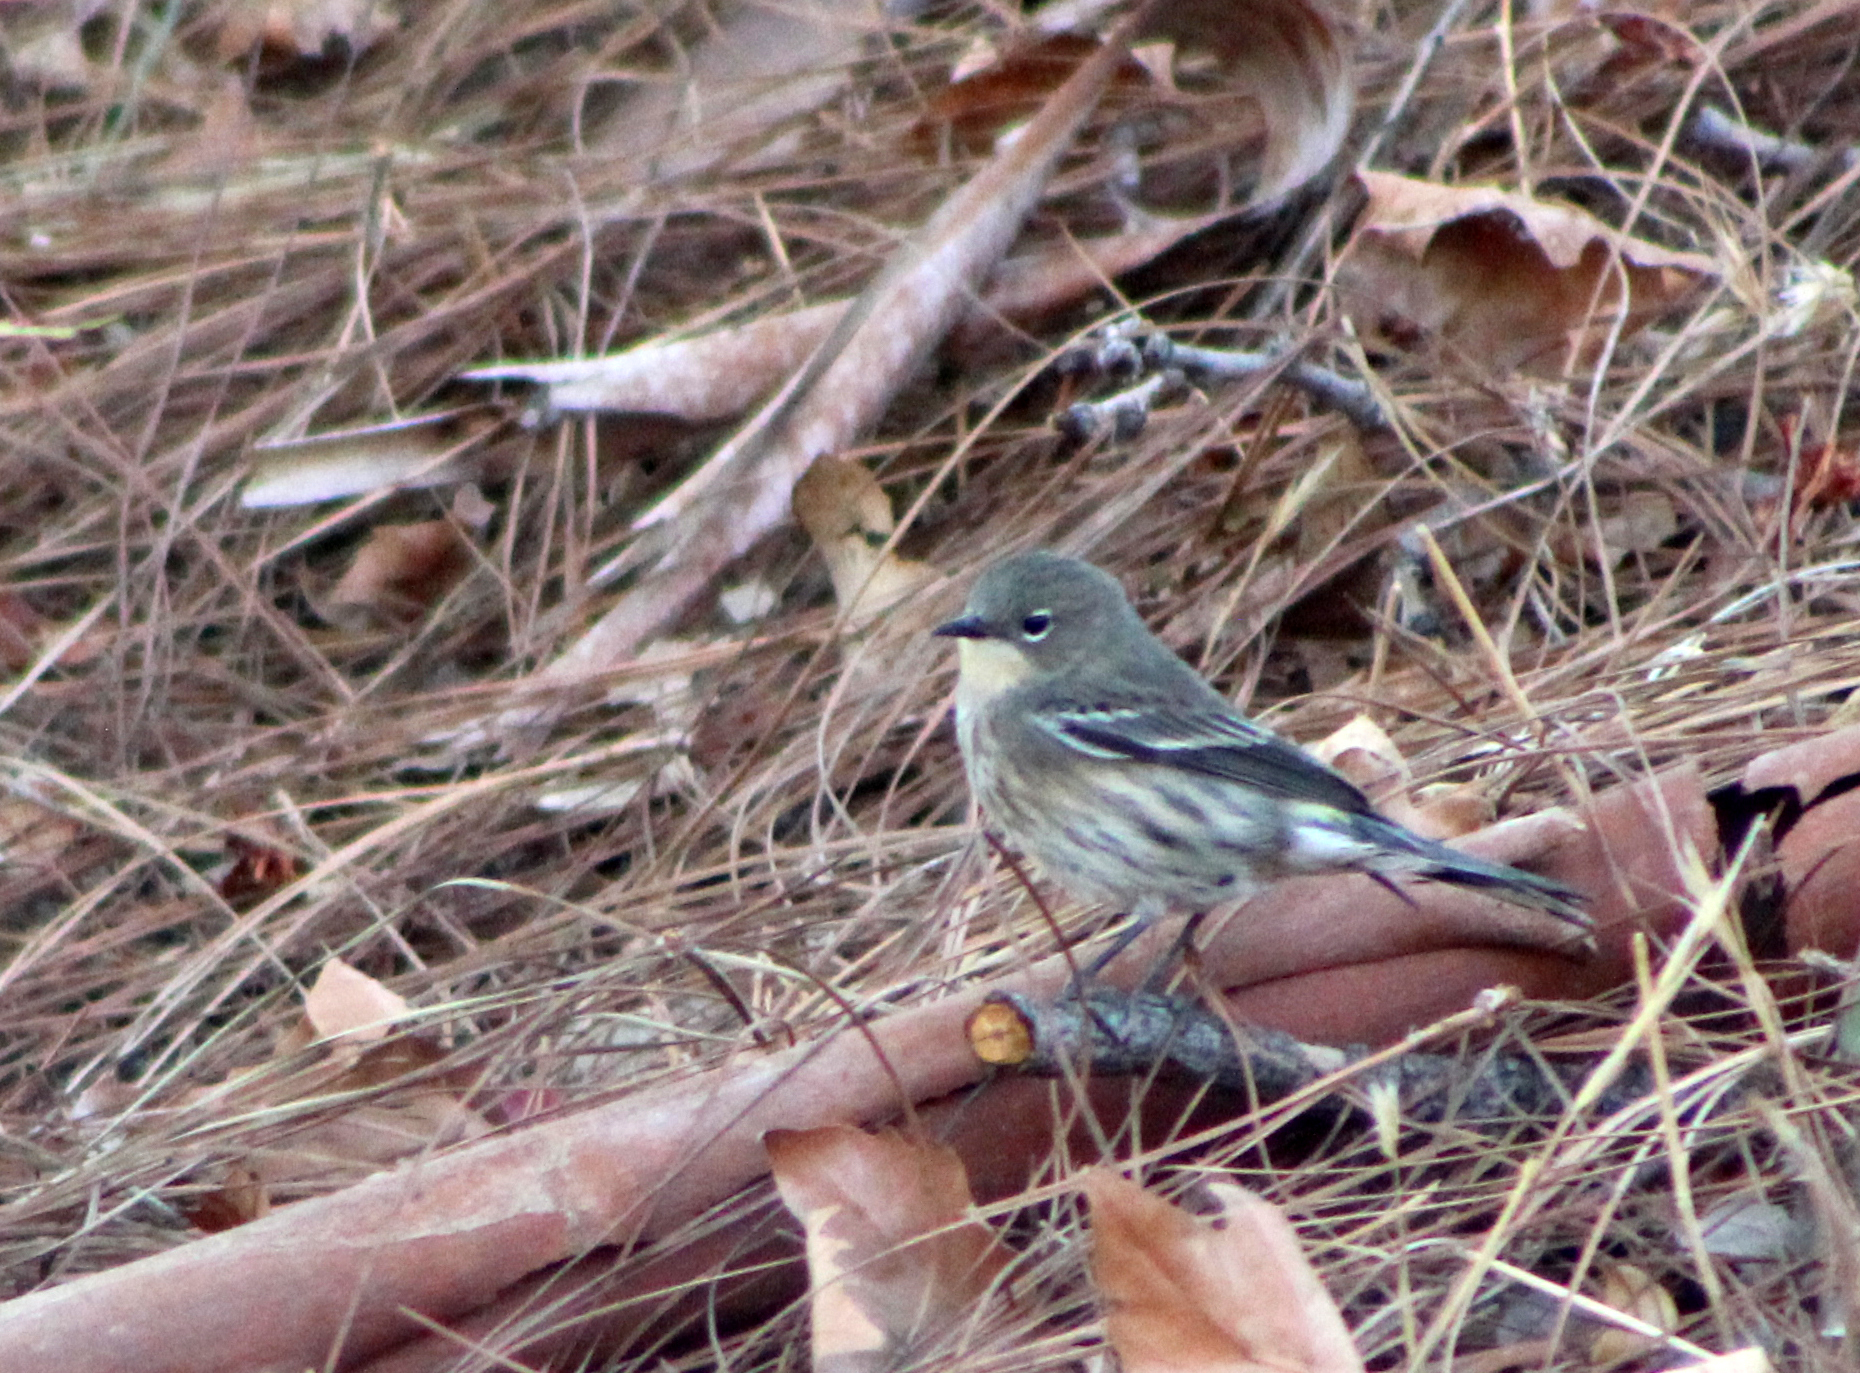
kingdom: Animalia
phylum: Chordata
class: Aves
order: Passeriformes
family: Parulidae
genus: Setophaga
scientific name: Setophaga coronata
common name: Myrtle warbler
